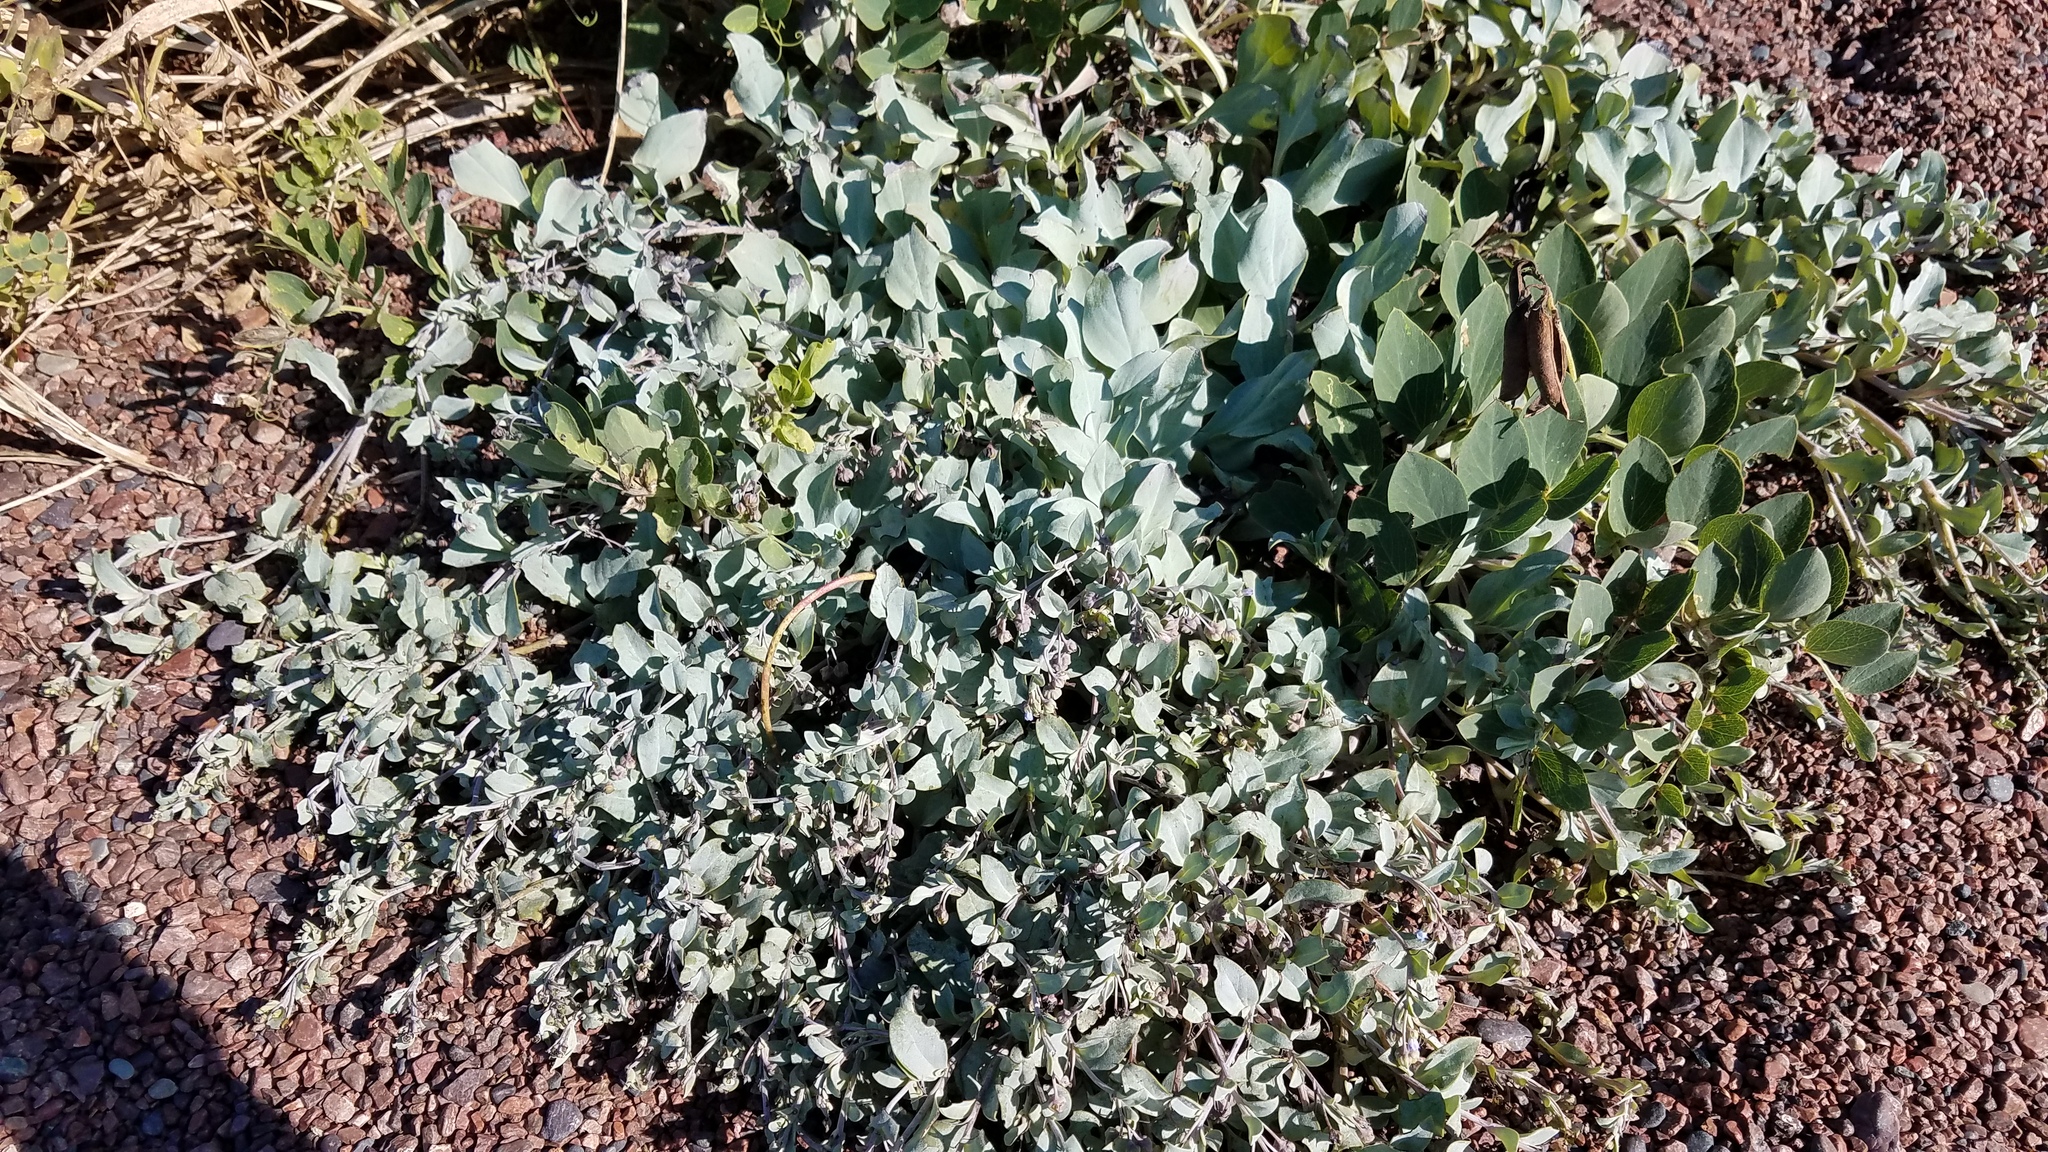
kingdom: Plantae
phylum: Tracheophyta
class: Magnoliopsida
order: Boraginales
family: Boraginaceae
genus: Mertensia
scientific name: Mertensia maritima
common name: Oysterplant
